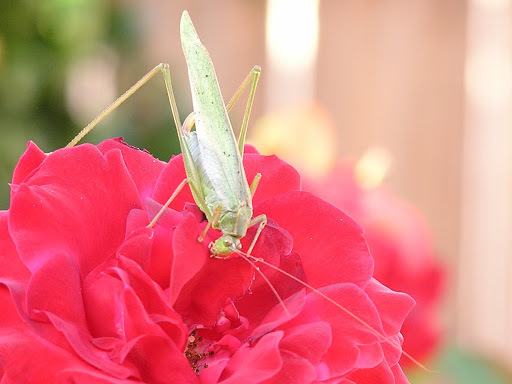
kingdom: Animalia
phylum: Arthropoda
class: Insecta
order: Orthoptera
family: Tettigoniidae
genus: Scudderia
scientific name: Scudderia mexicana
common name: Mexican bush katydid
